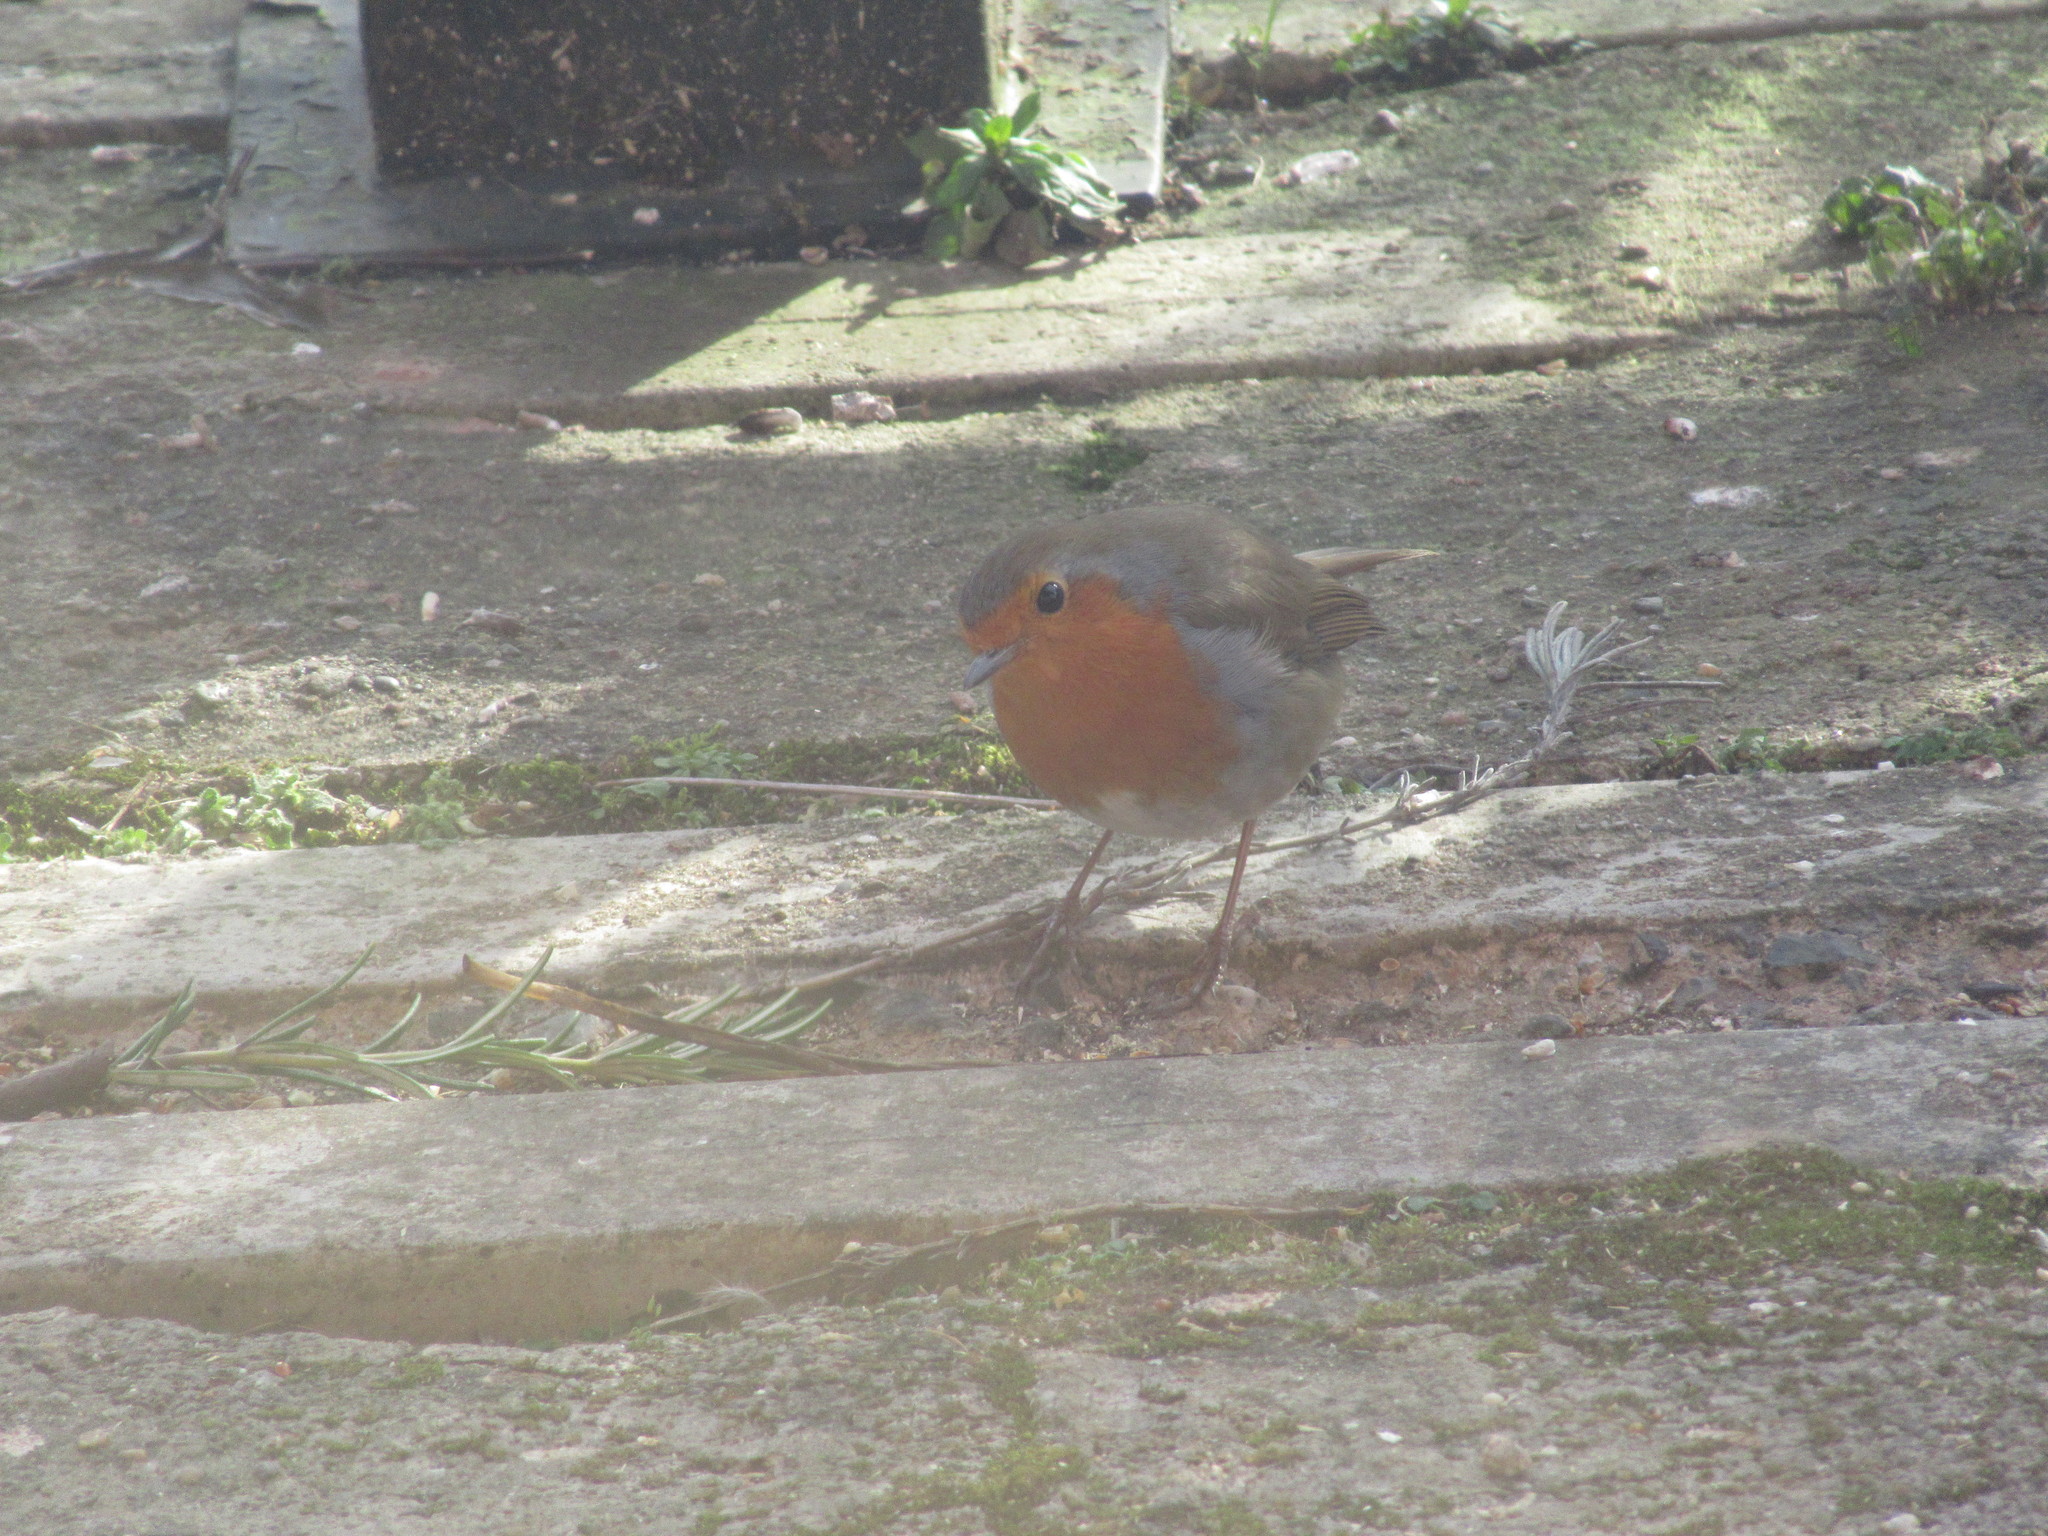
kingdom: Animalia
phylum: Chordata
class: Aves
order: Passeriformes
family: Muscicapidae
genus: Erithacus
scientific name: Erithacus rubecula
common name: European robin
